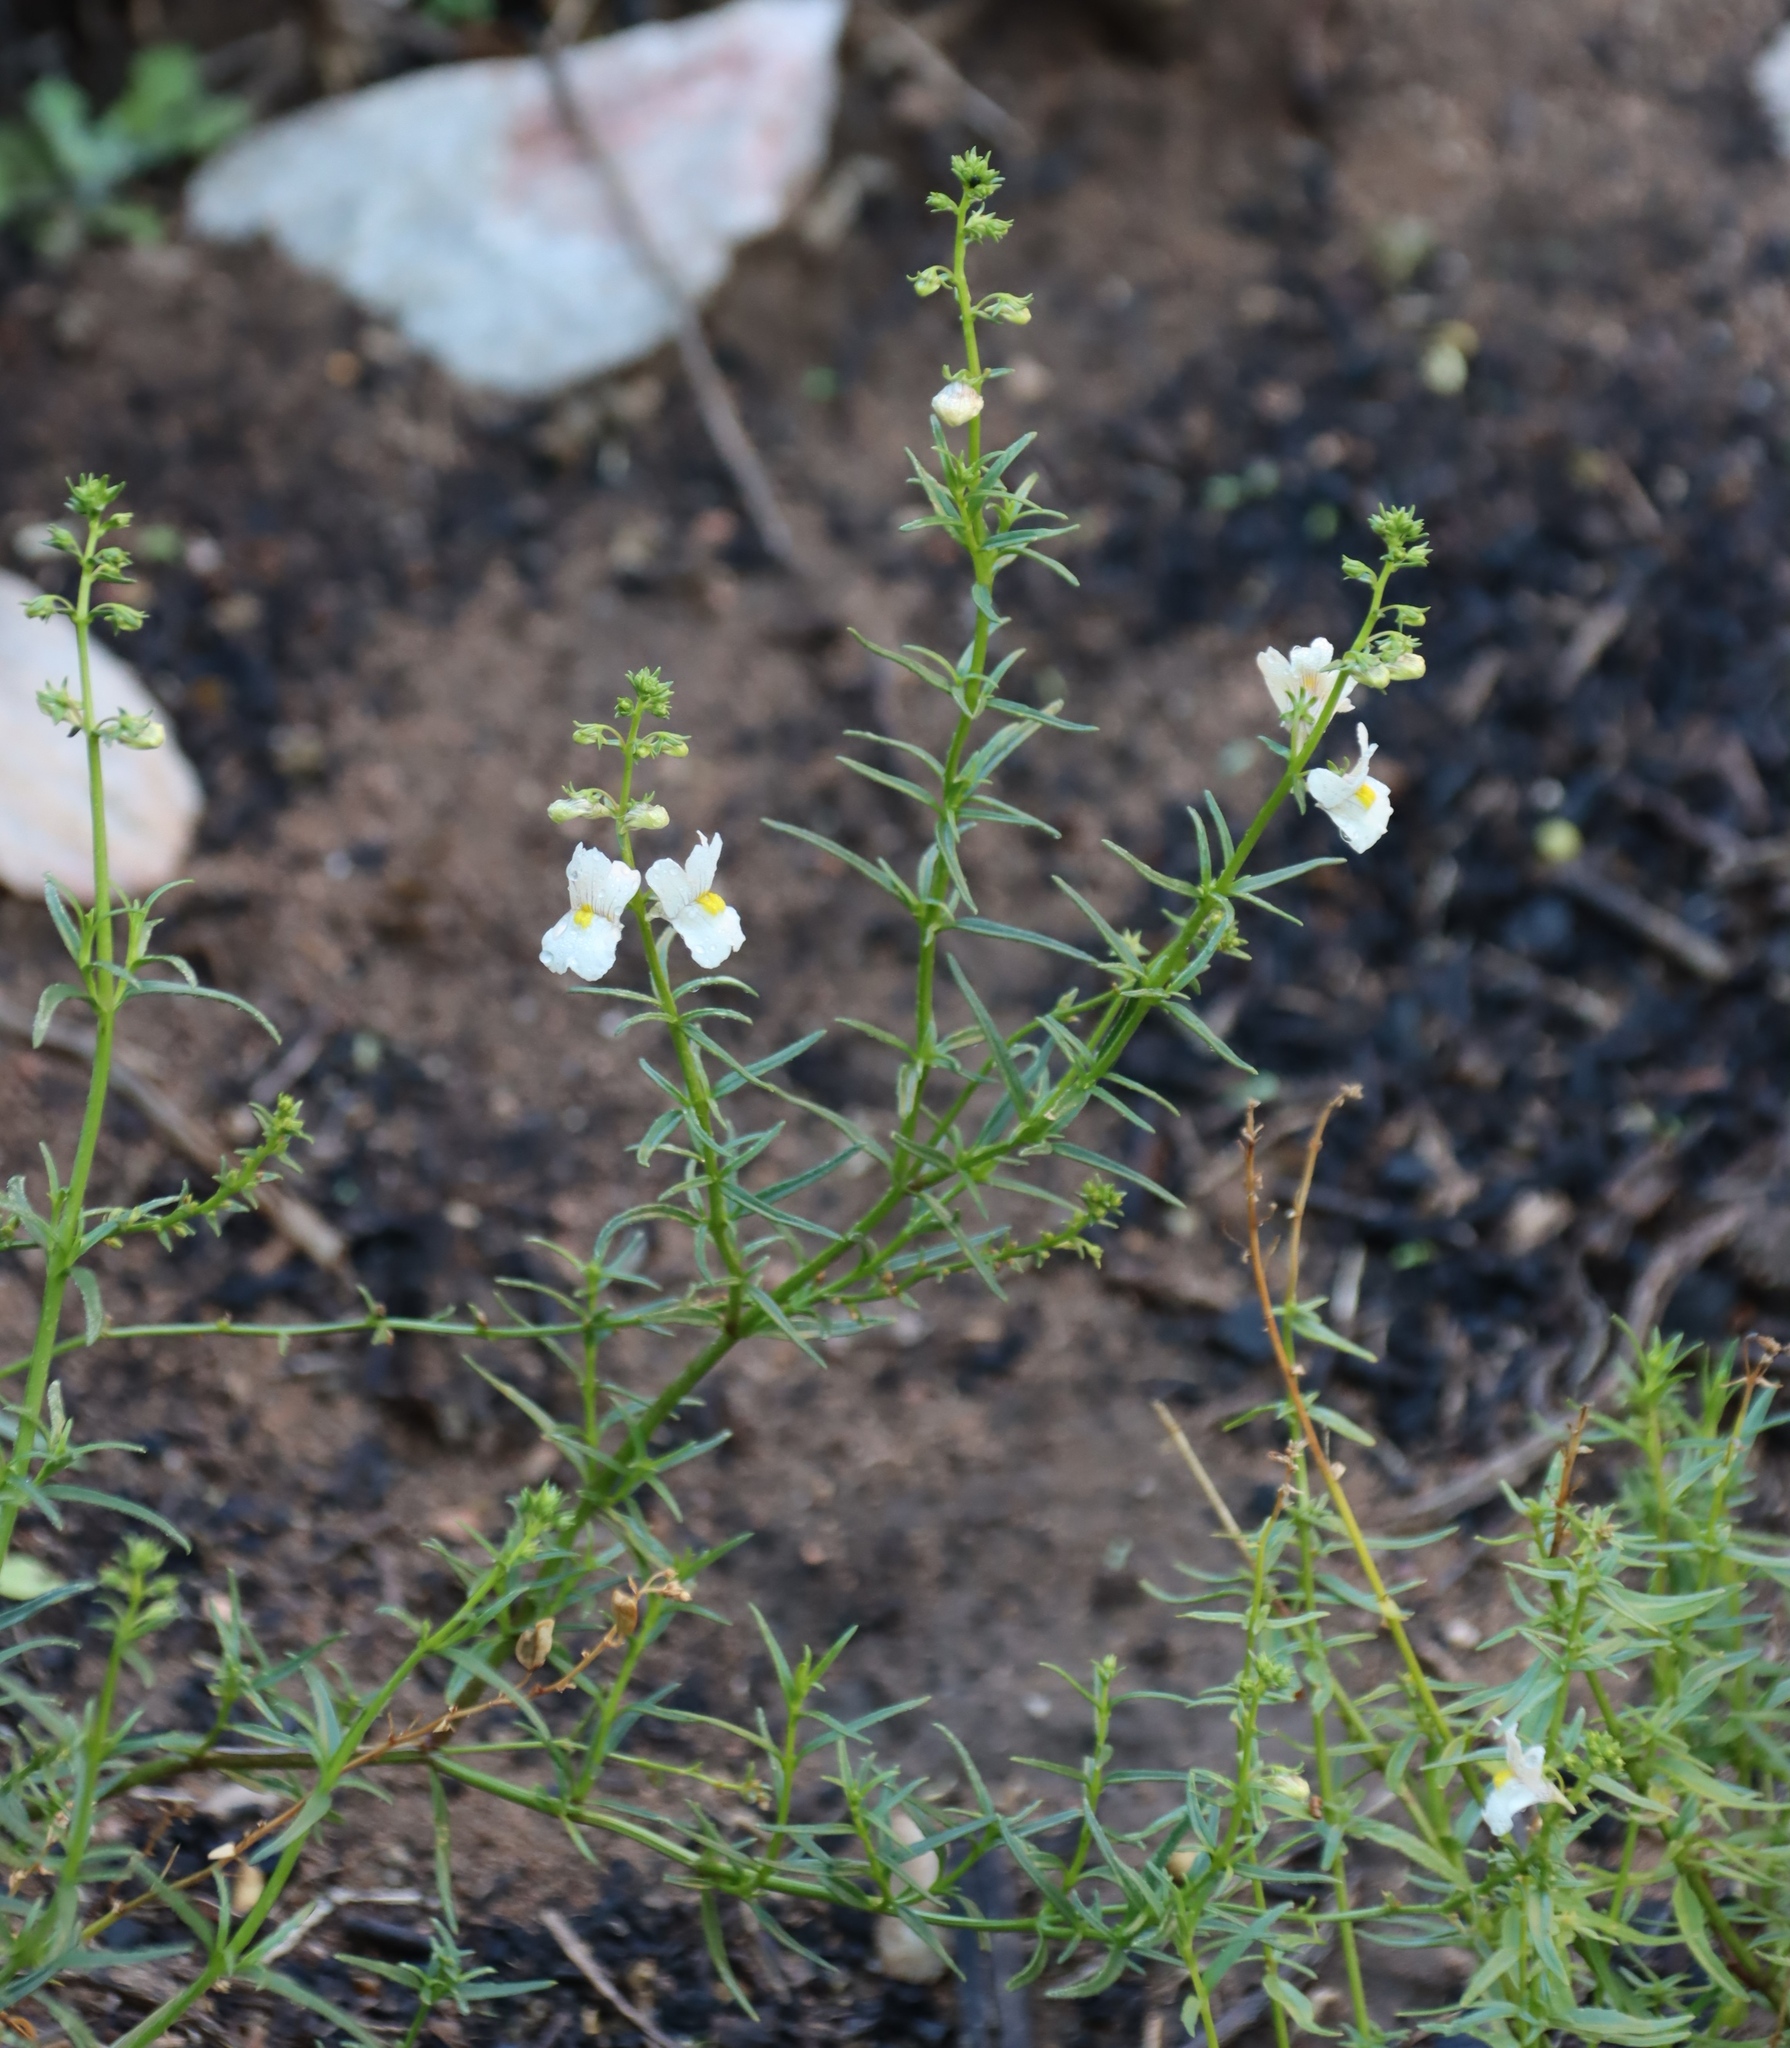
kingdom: Plantae
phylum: Tracheophyta
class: Magnoliopsida
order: Lamiales
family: Scrophulariaceae
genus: Nemesia
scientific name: Nemesia fruticans
